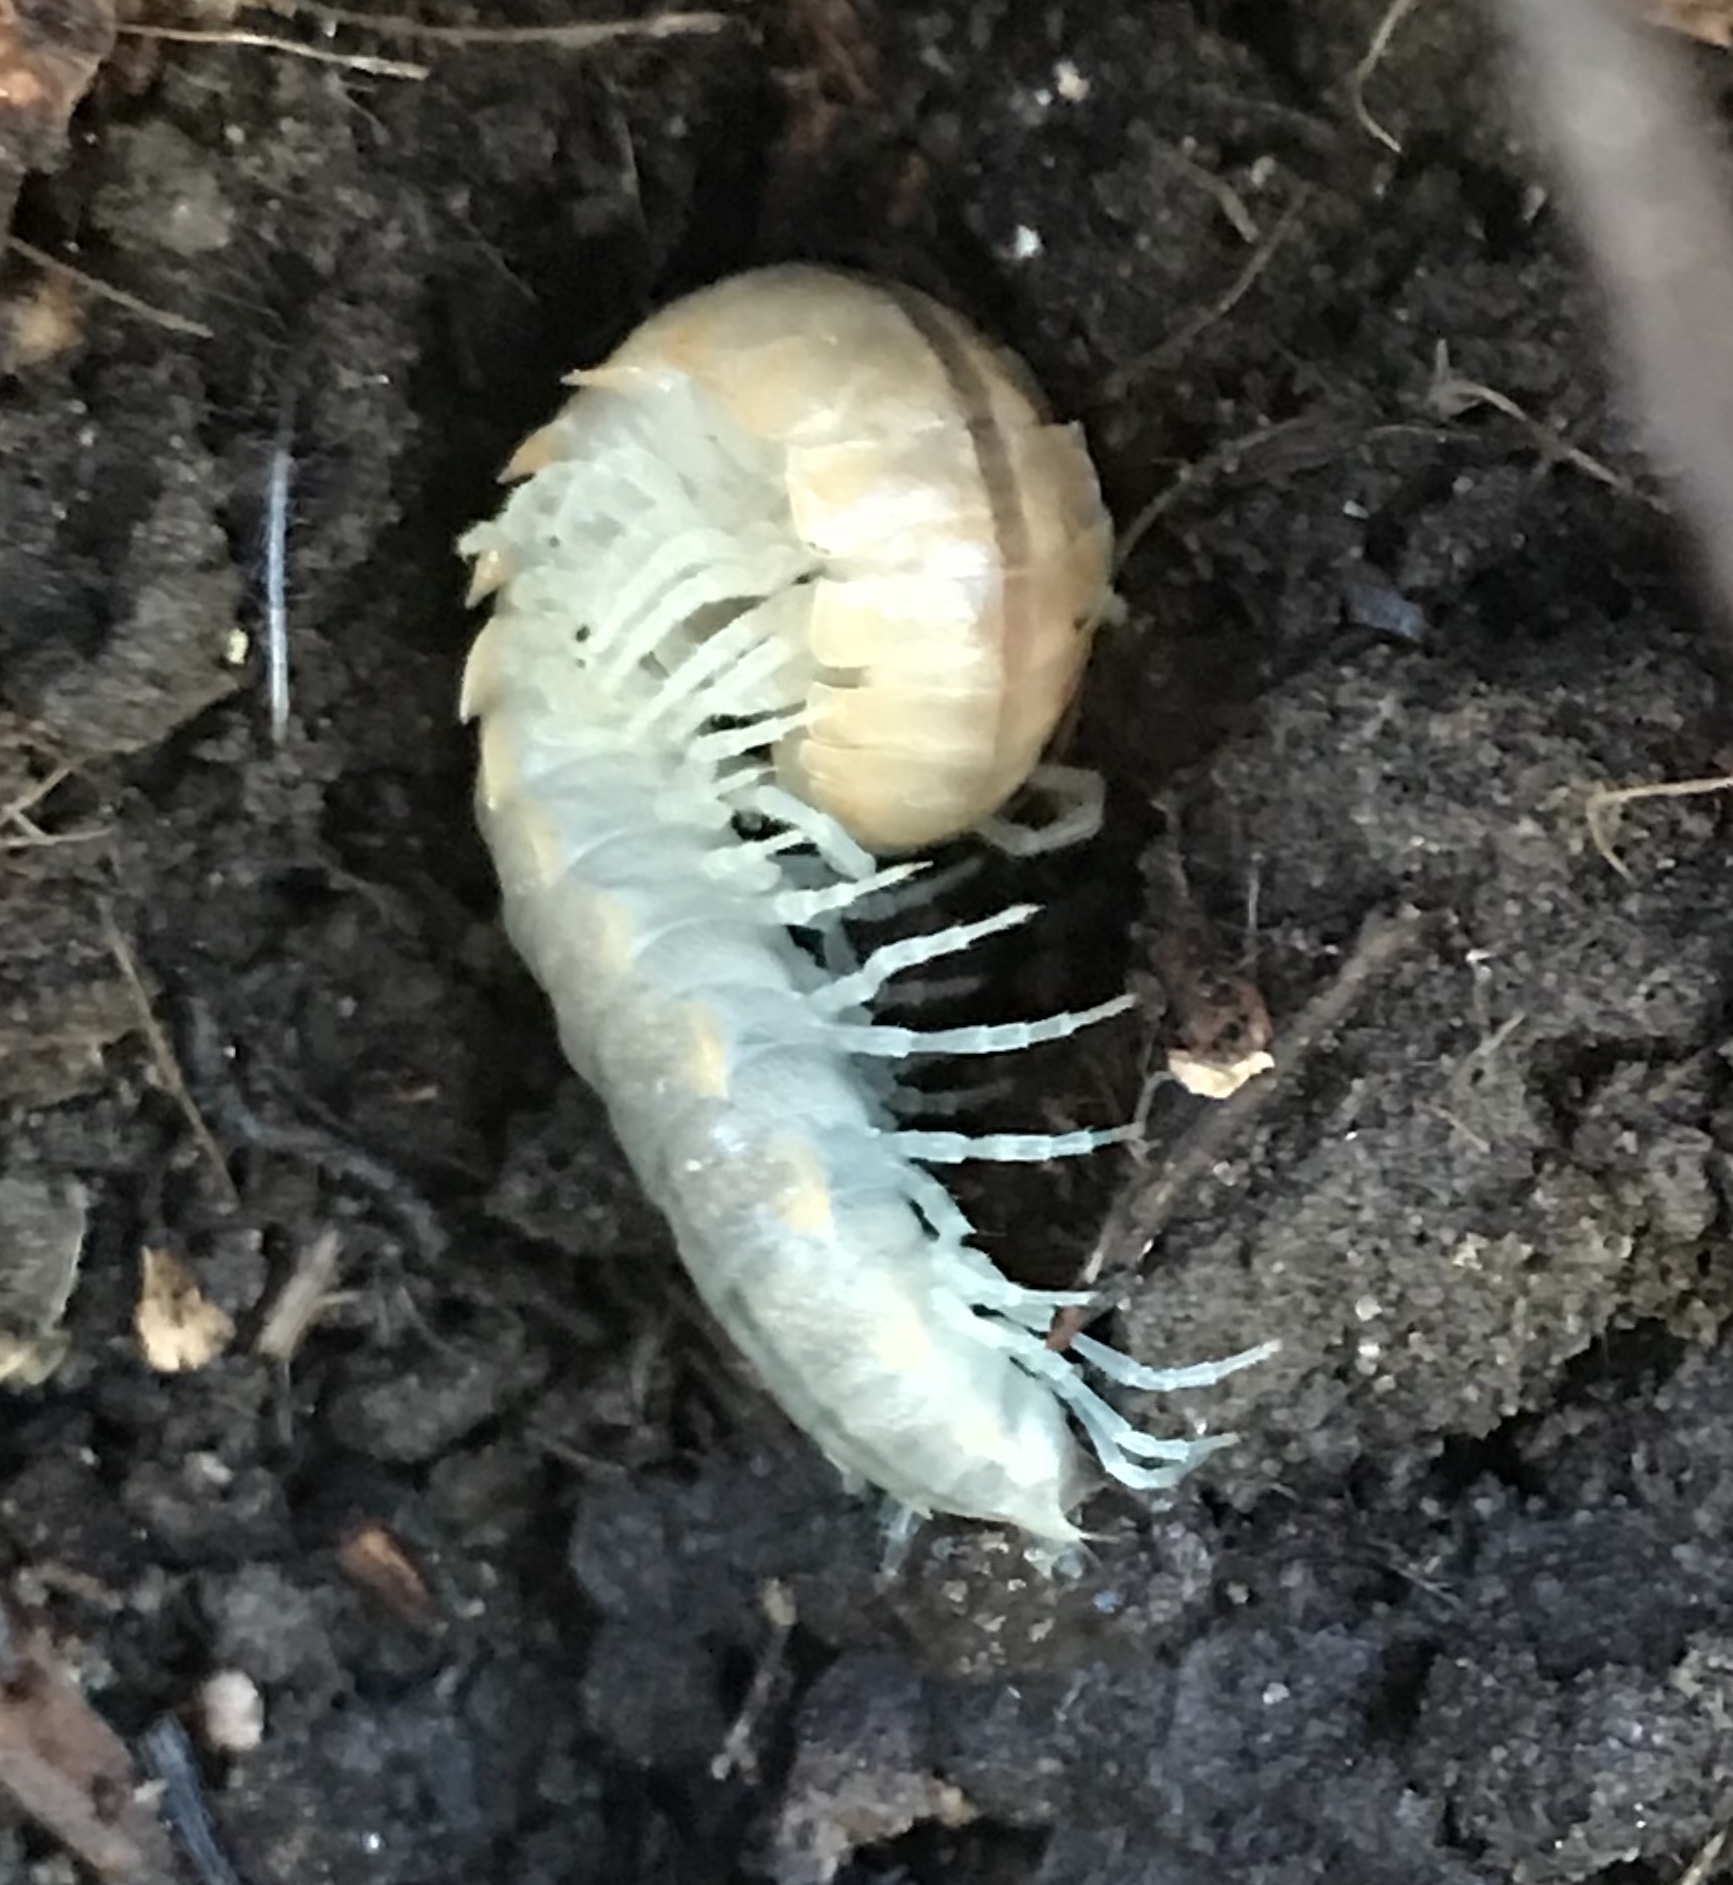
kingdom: Animalia
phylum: Arthropoda
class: Diplopoda
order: Polydesmida
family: Xystodesmidae
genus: Xystocheir
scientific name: Xystocheir dissecta
